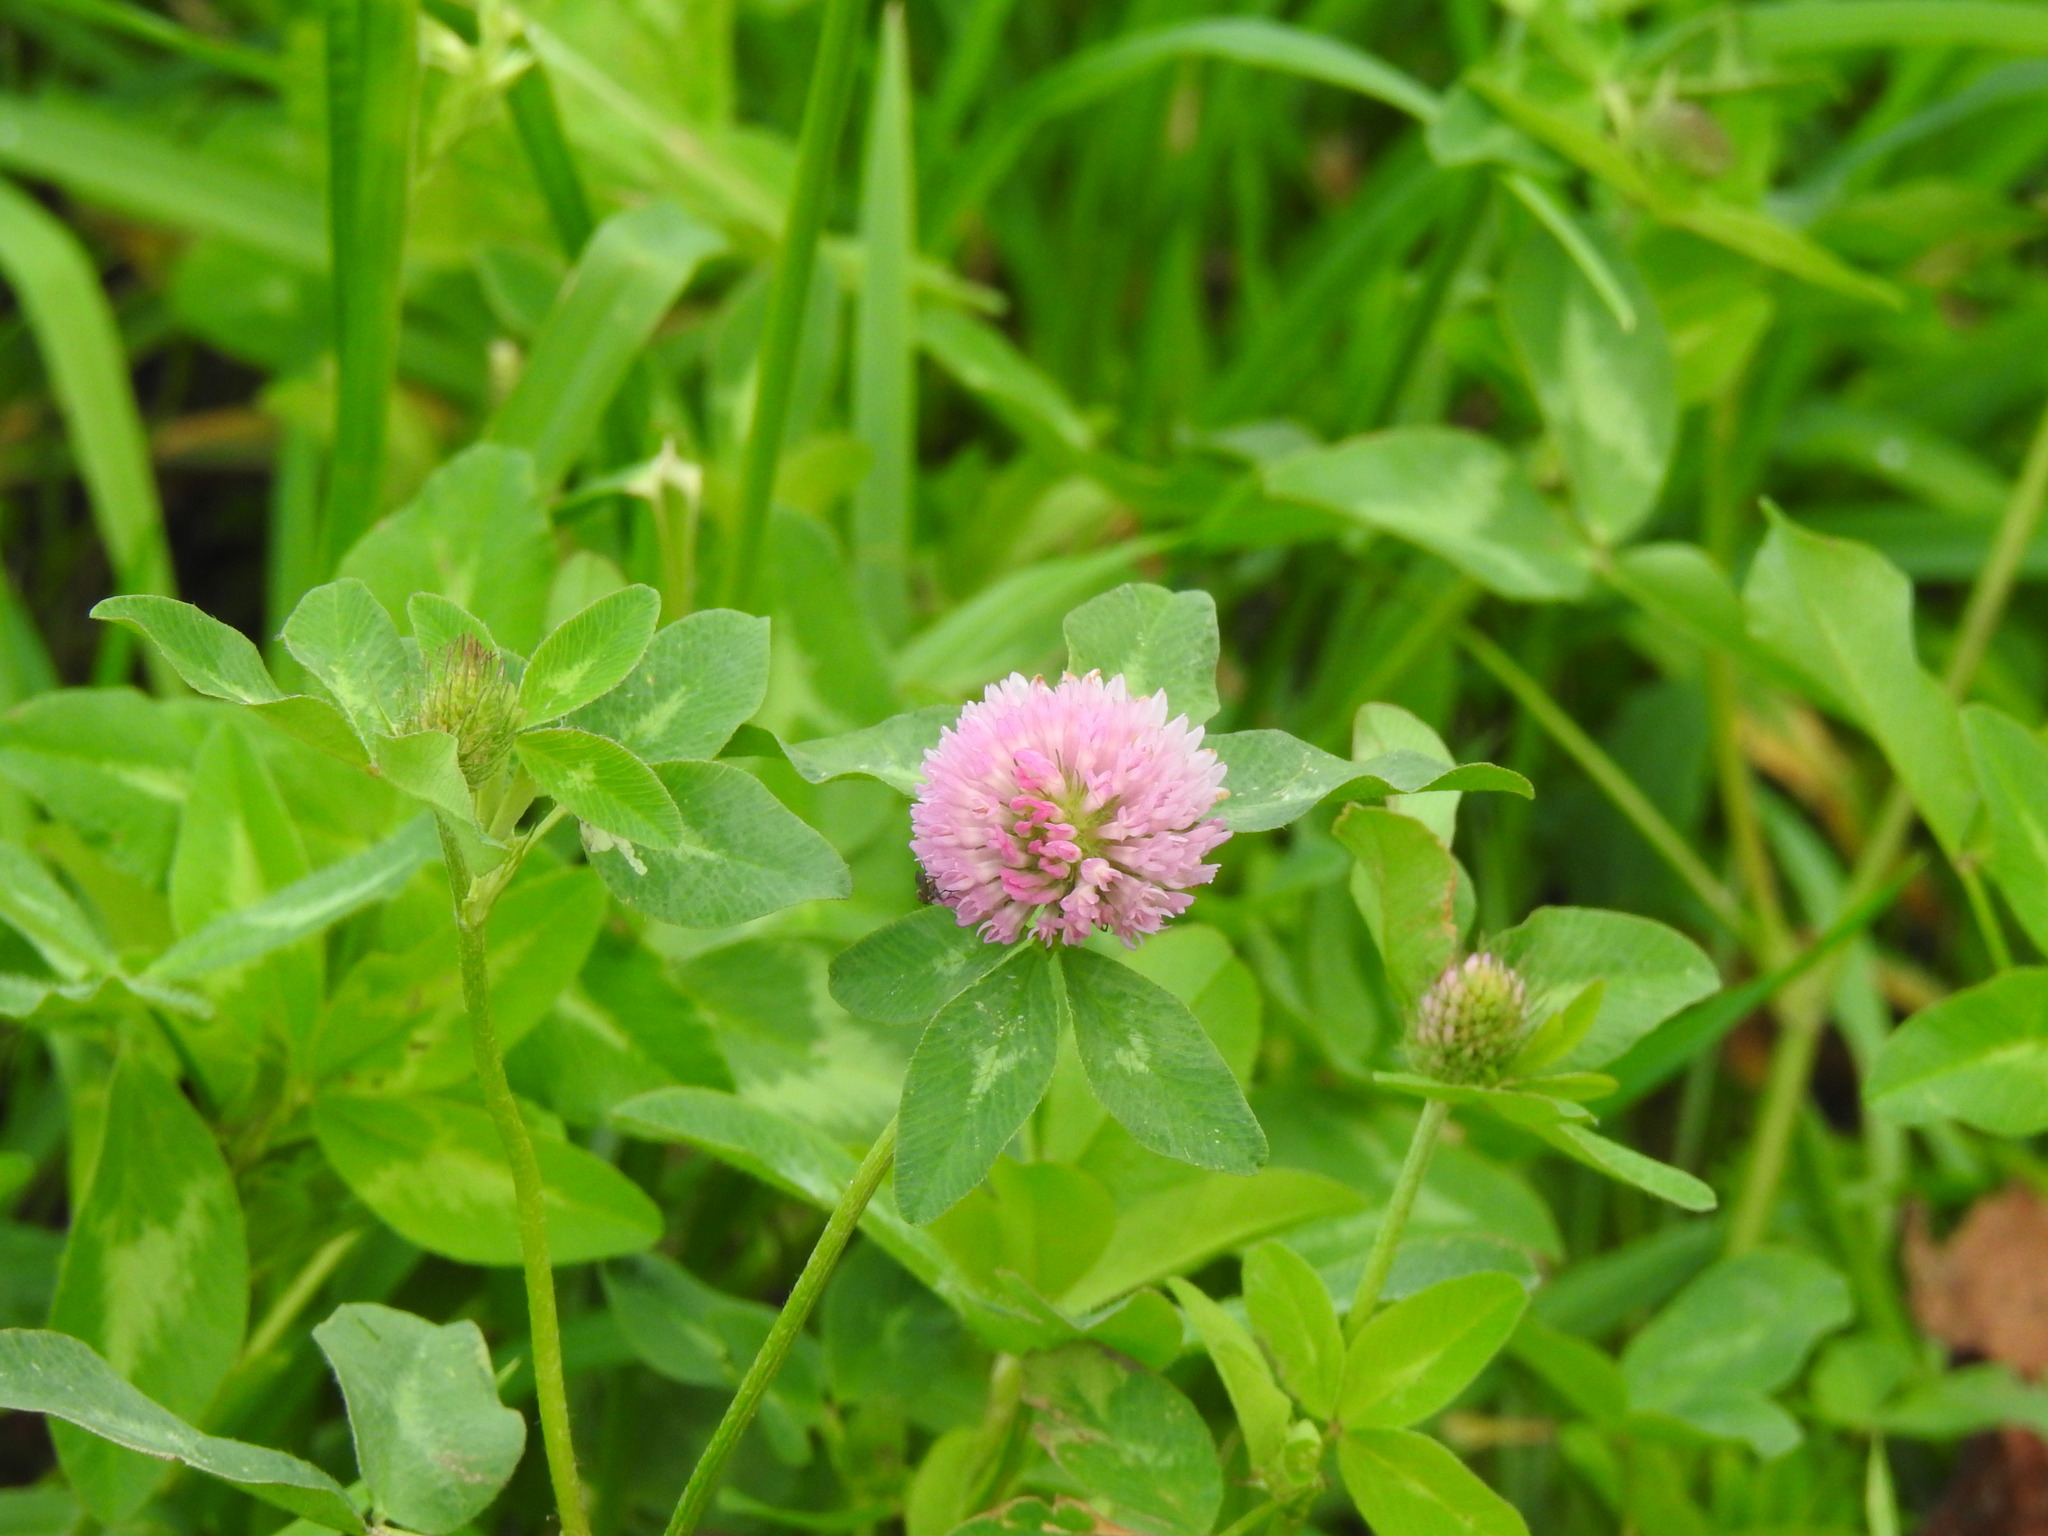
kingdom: Plantae
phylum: Tracheophyta
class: Magnoliopsida
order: Fabales
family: Fabaceae
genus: Trifolium
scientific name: Trifolium pratense
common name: Red clover
